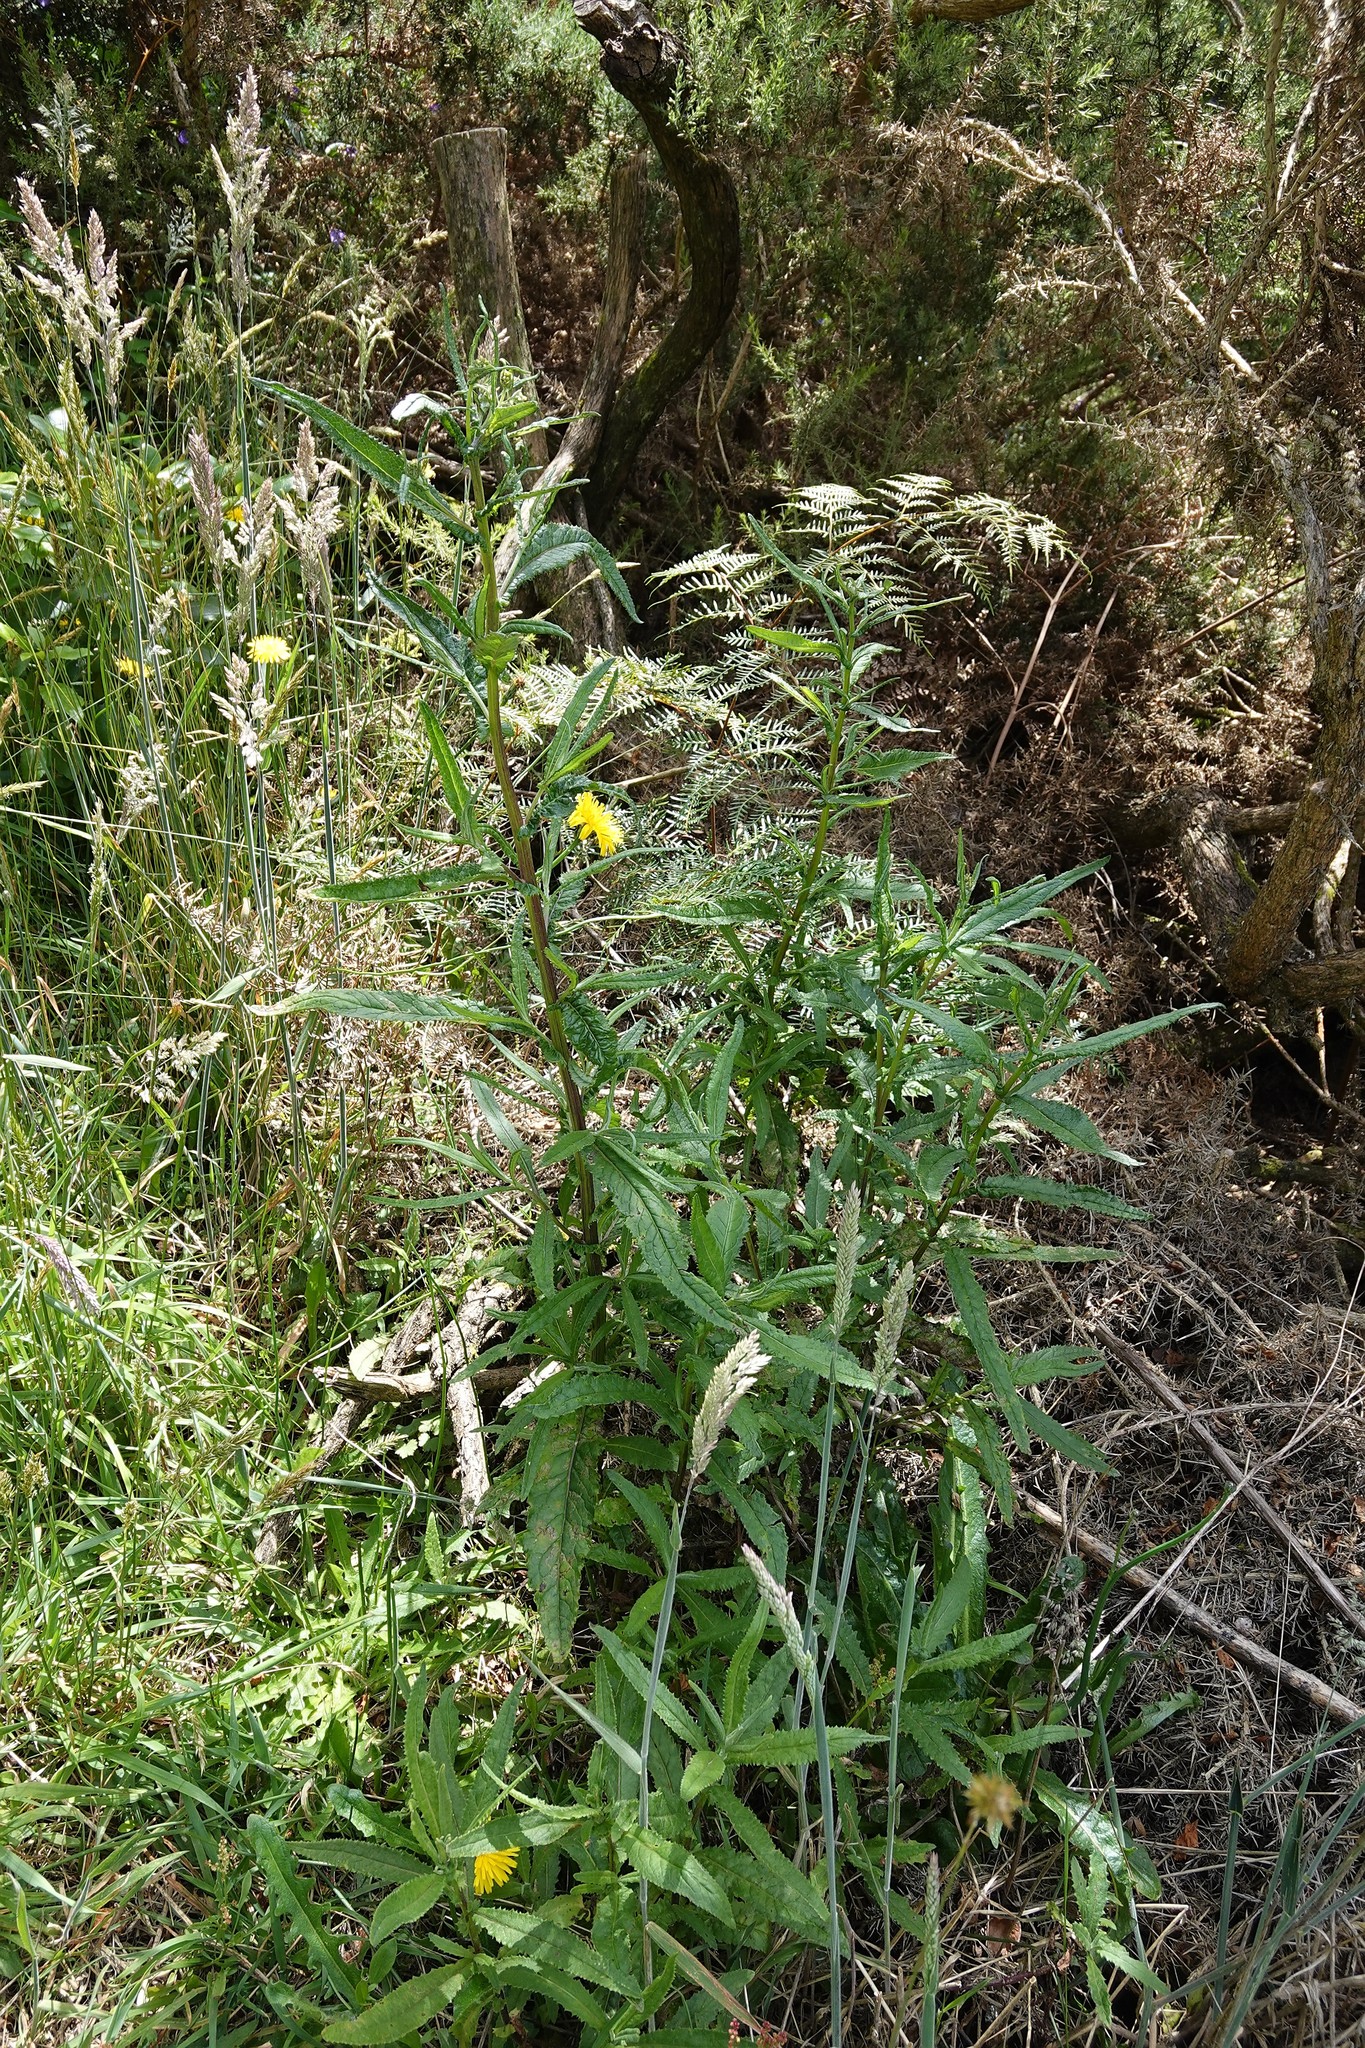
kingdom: Plantae
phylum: Tracheophyta
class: Magnoliopsida
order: Asterales
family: Asteraceae
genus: Senecio
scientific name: Senecio minimus
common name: Toothed fireweed
